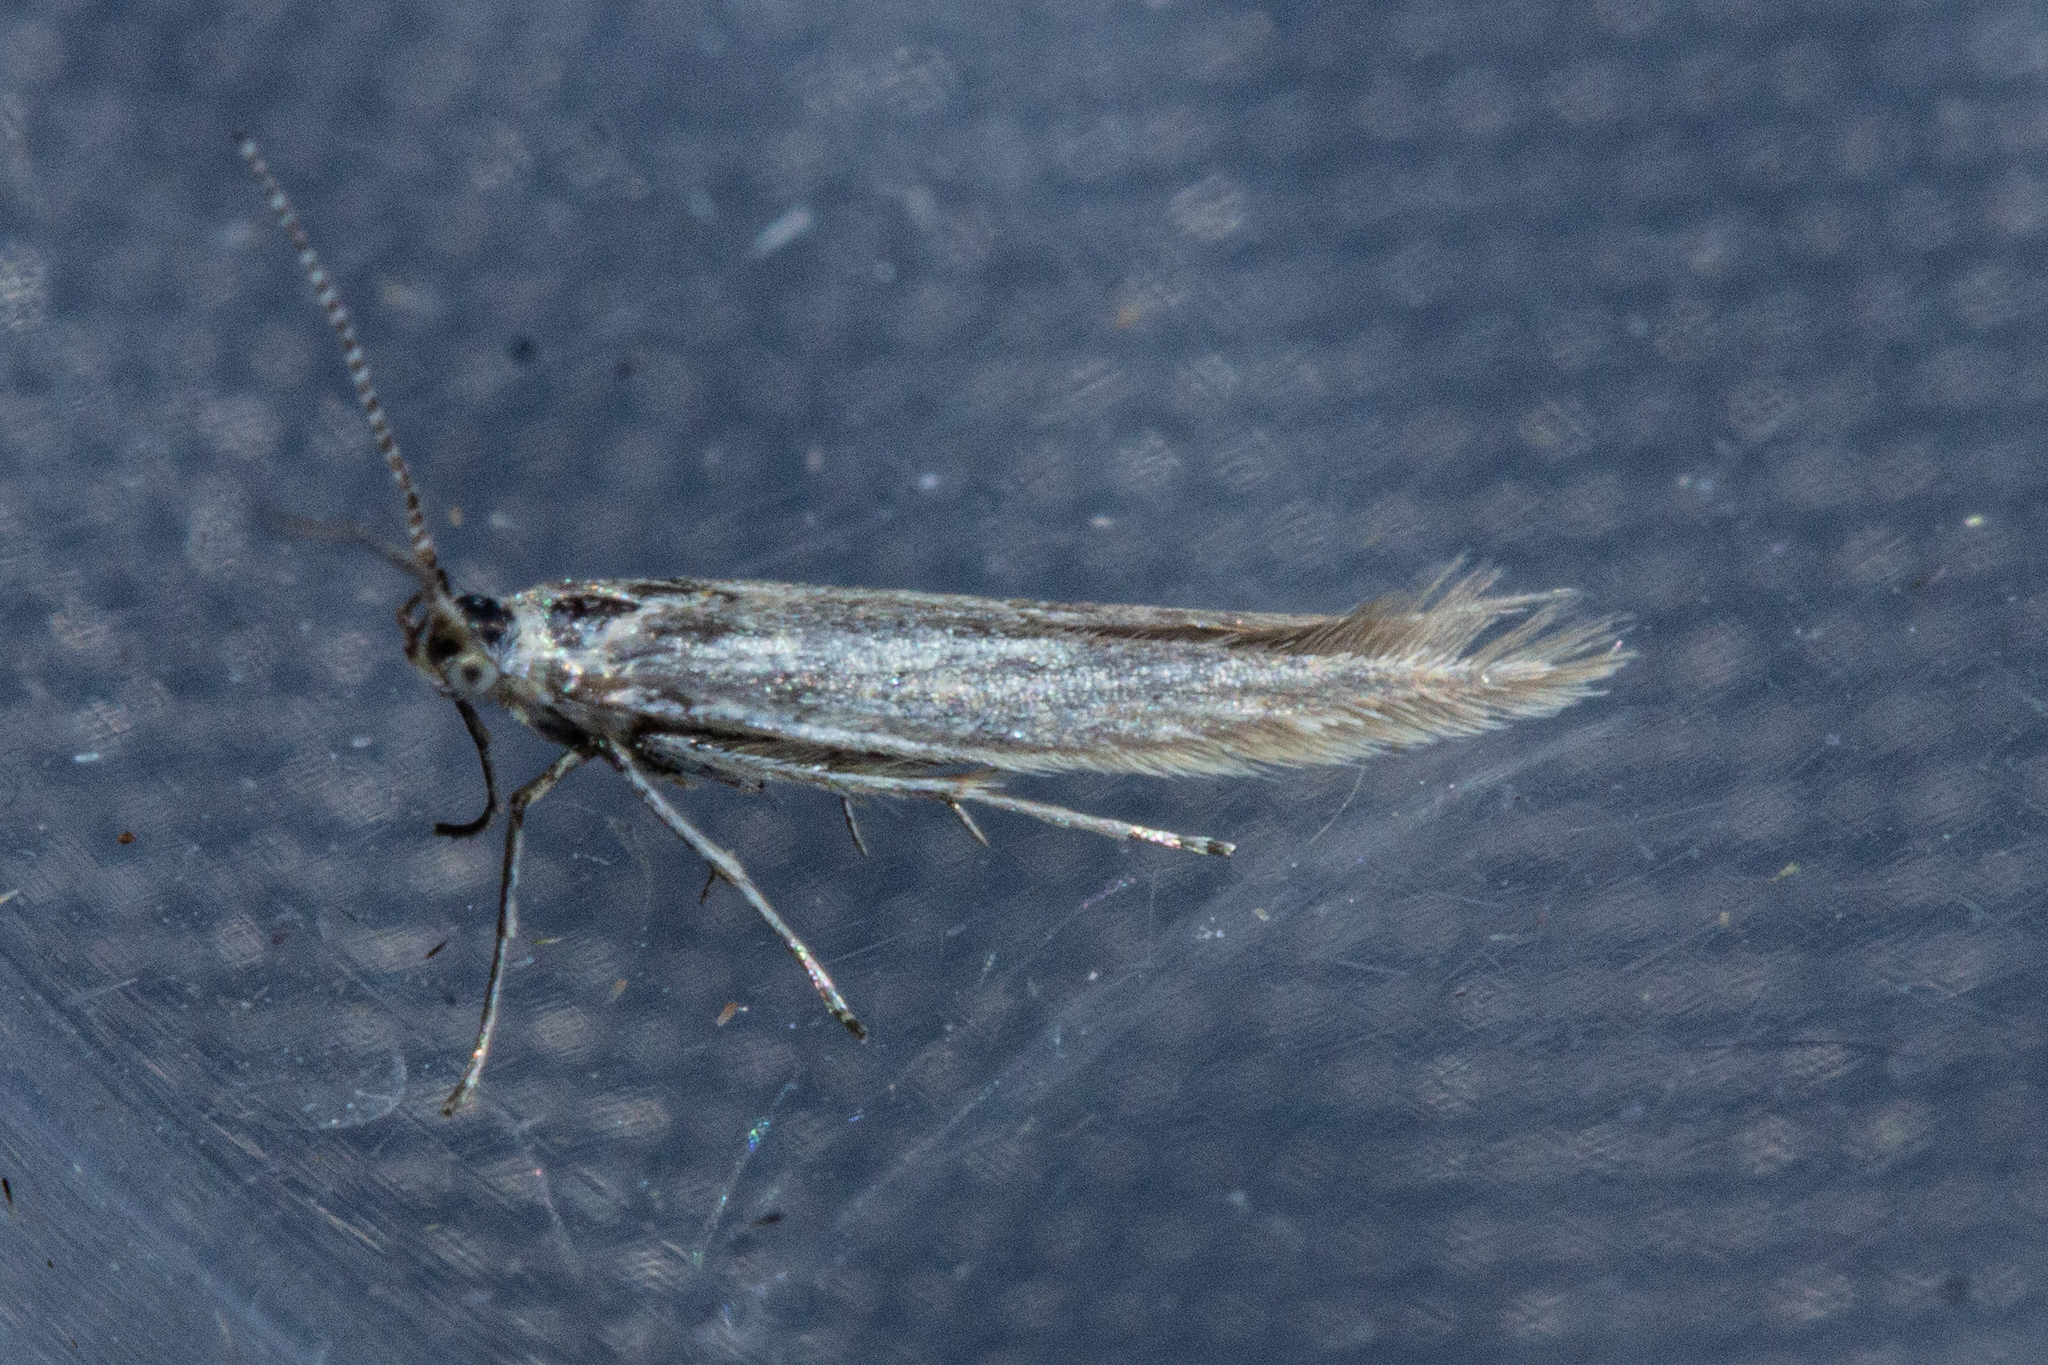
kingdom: Animalia
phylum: Arthropoda
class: Insecta
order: Lepidoptera
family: Coleophoridae
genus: Coleophora
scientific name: Coleophora striatipennella
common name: Hedge case-bearer
